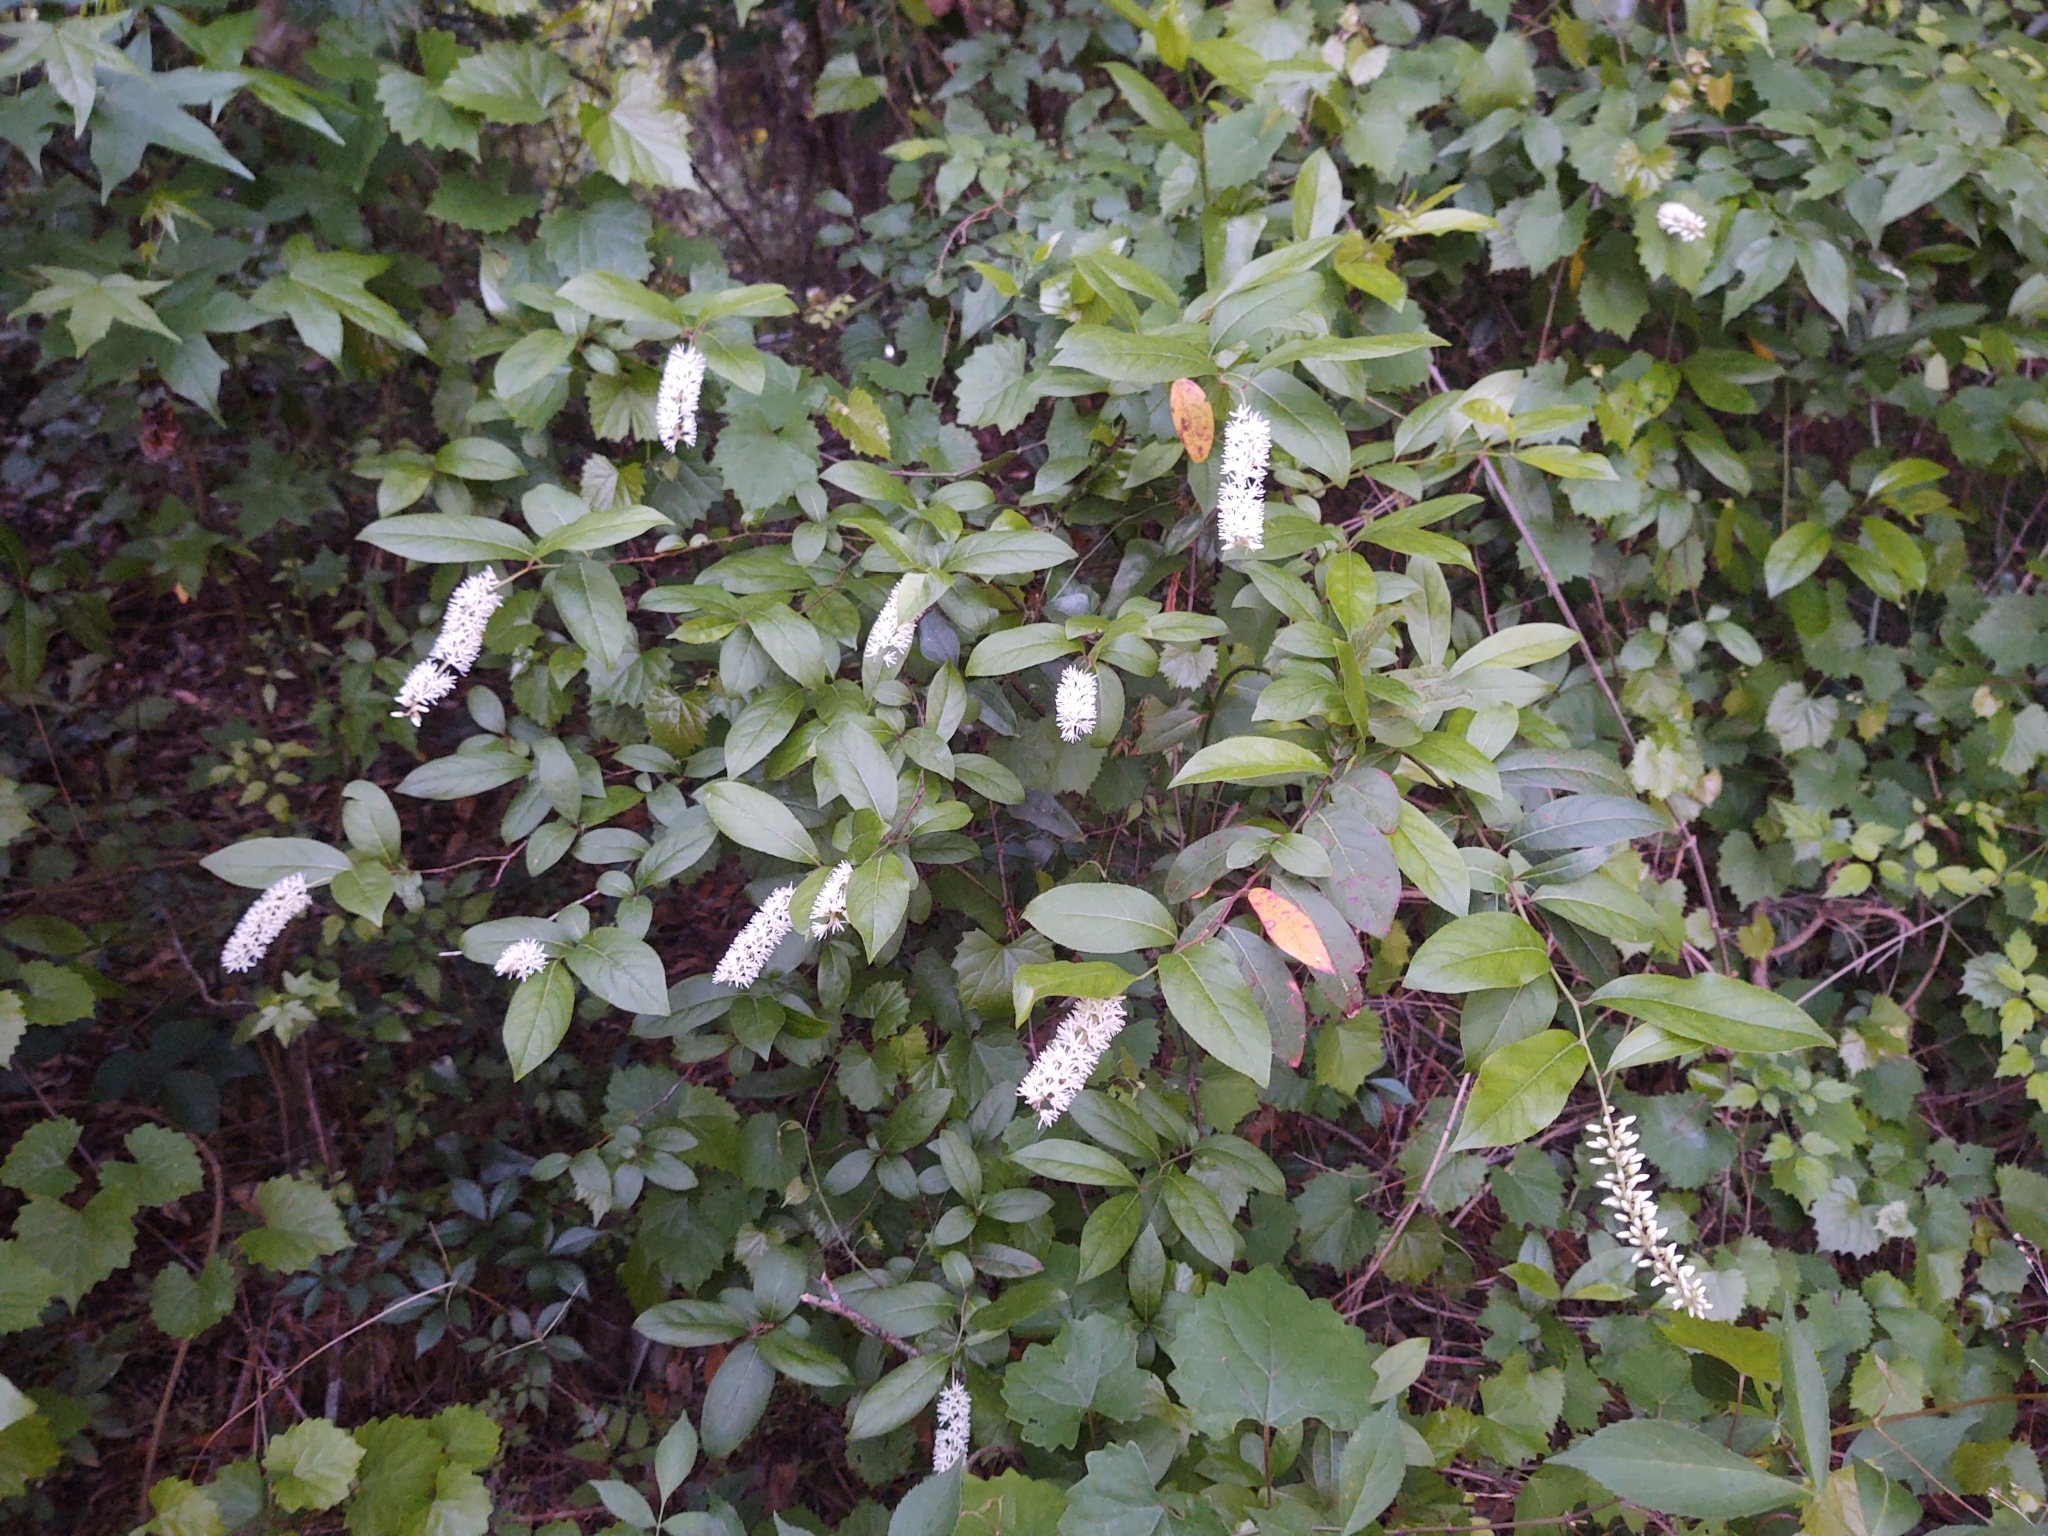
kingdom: Plantae
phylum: Tracheophyta
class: Magnoliopsida
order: Saxifragales
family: Iteaceae
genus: Itea
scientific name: Itea virginica
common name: Sweetspire
